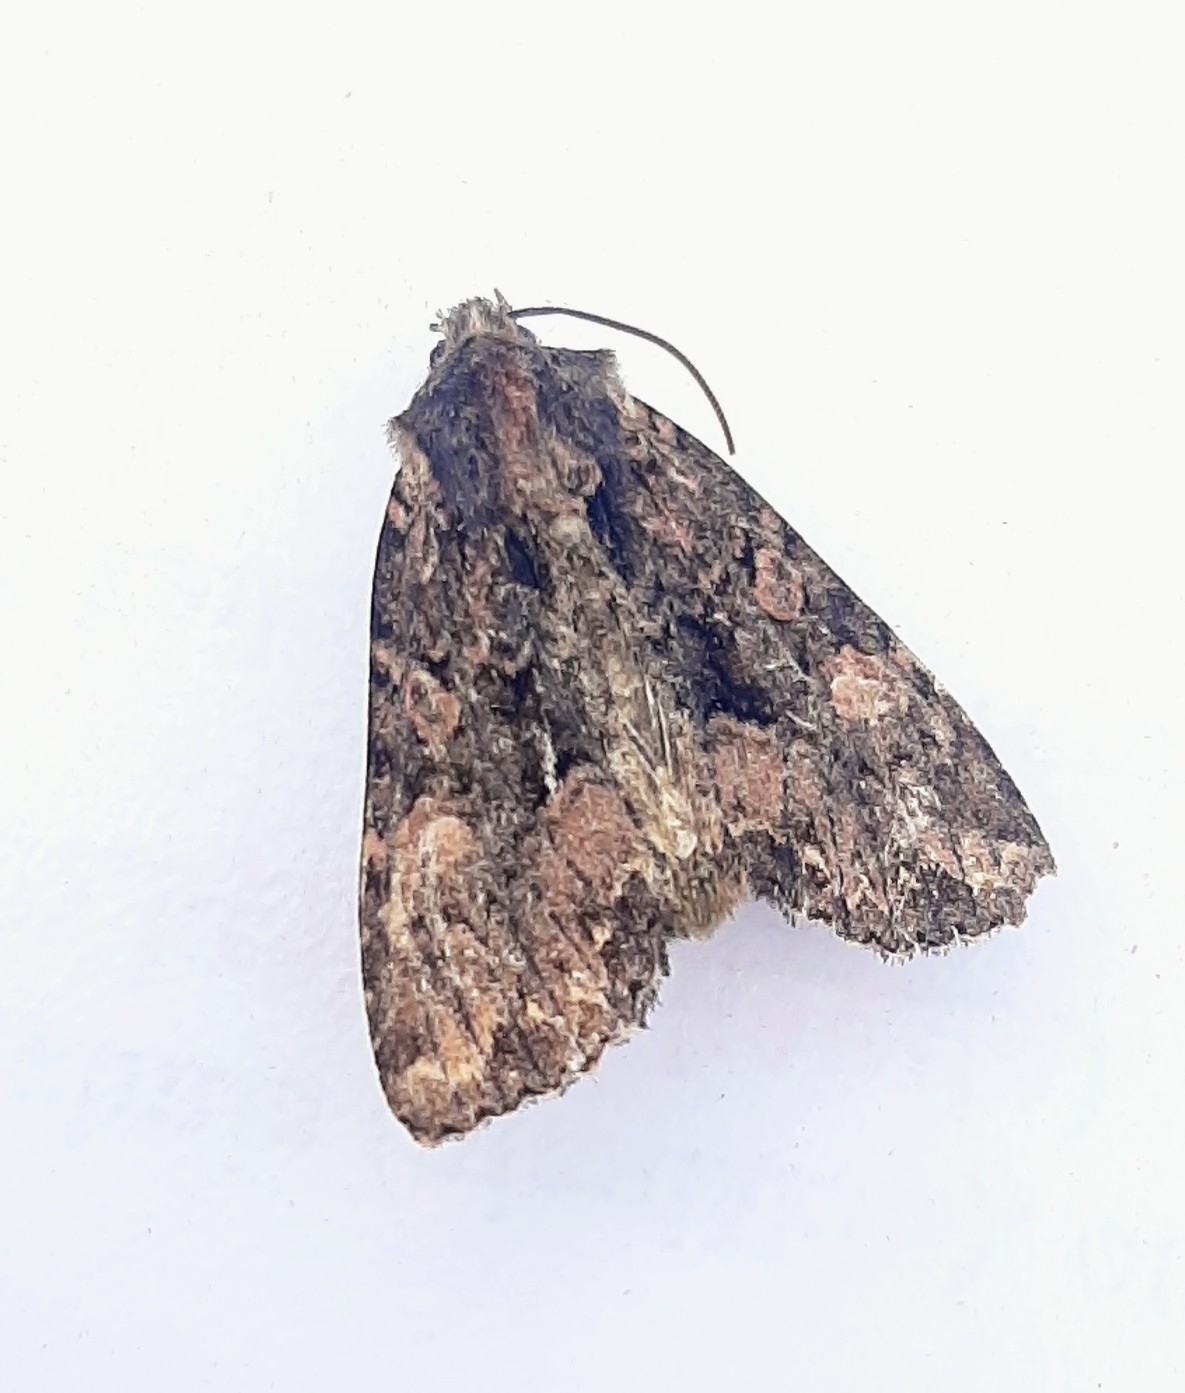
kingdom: Animalia
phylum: Arthropoda
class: Insecta
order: Lepidoptera
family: Noctuidae
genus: Mniotype
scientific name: Mniotype satura
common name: Beautiful arches
